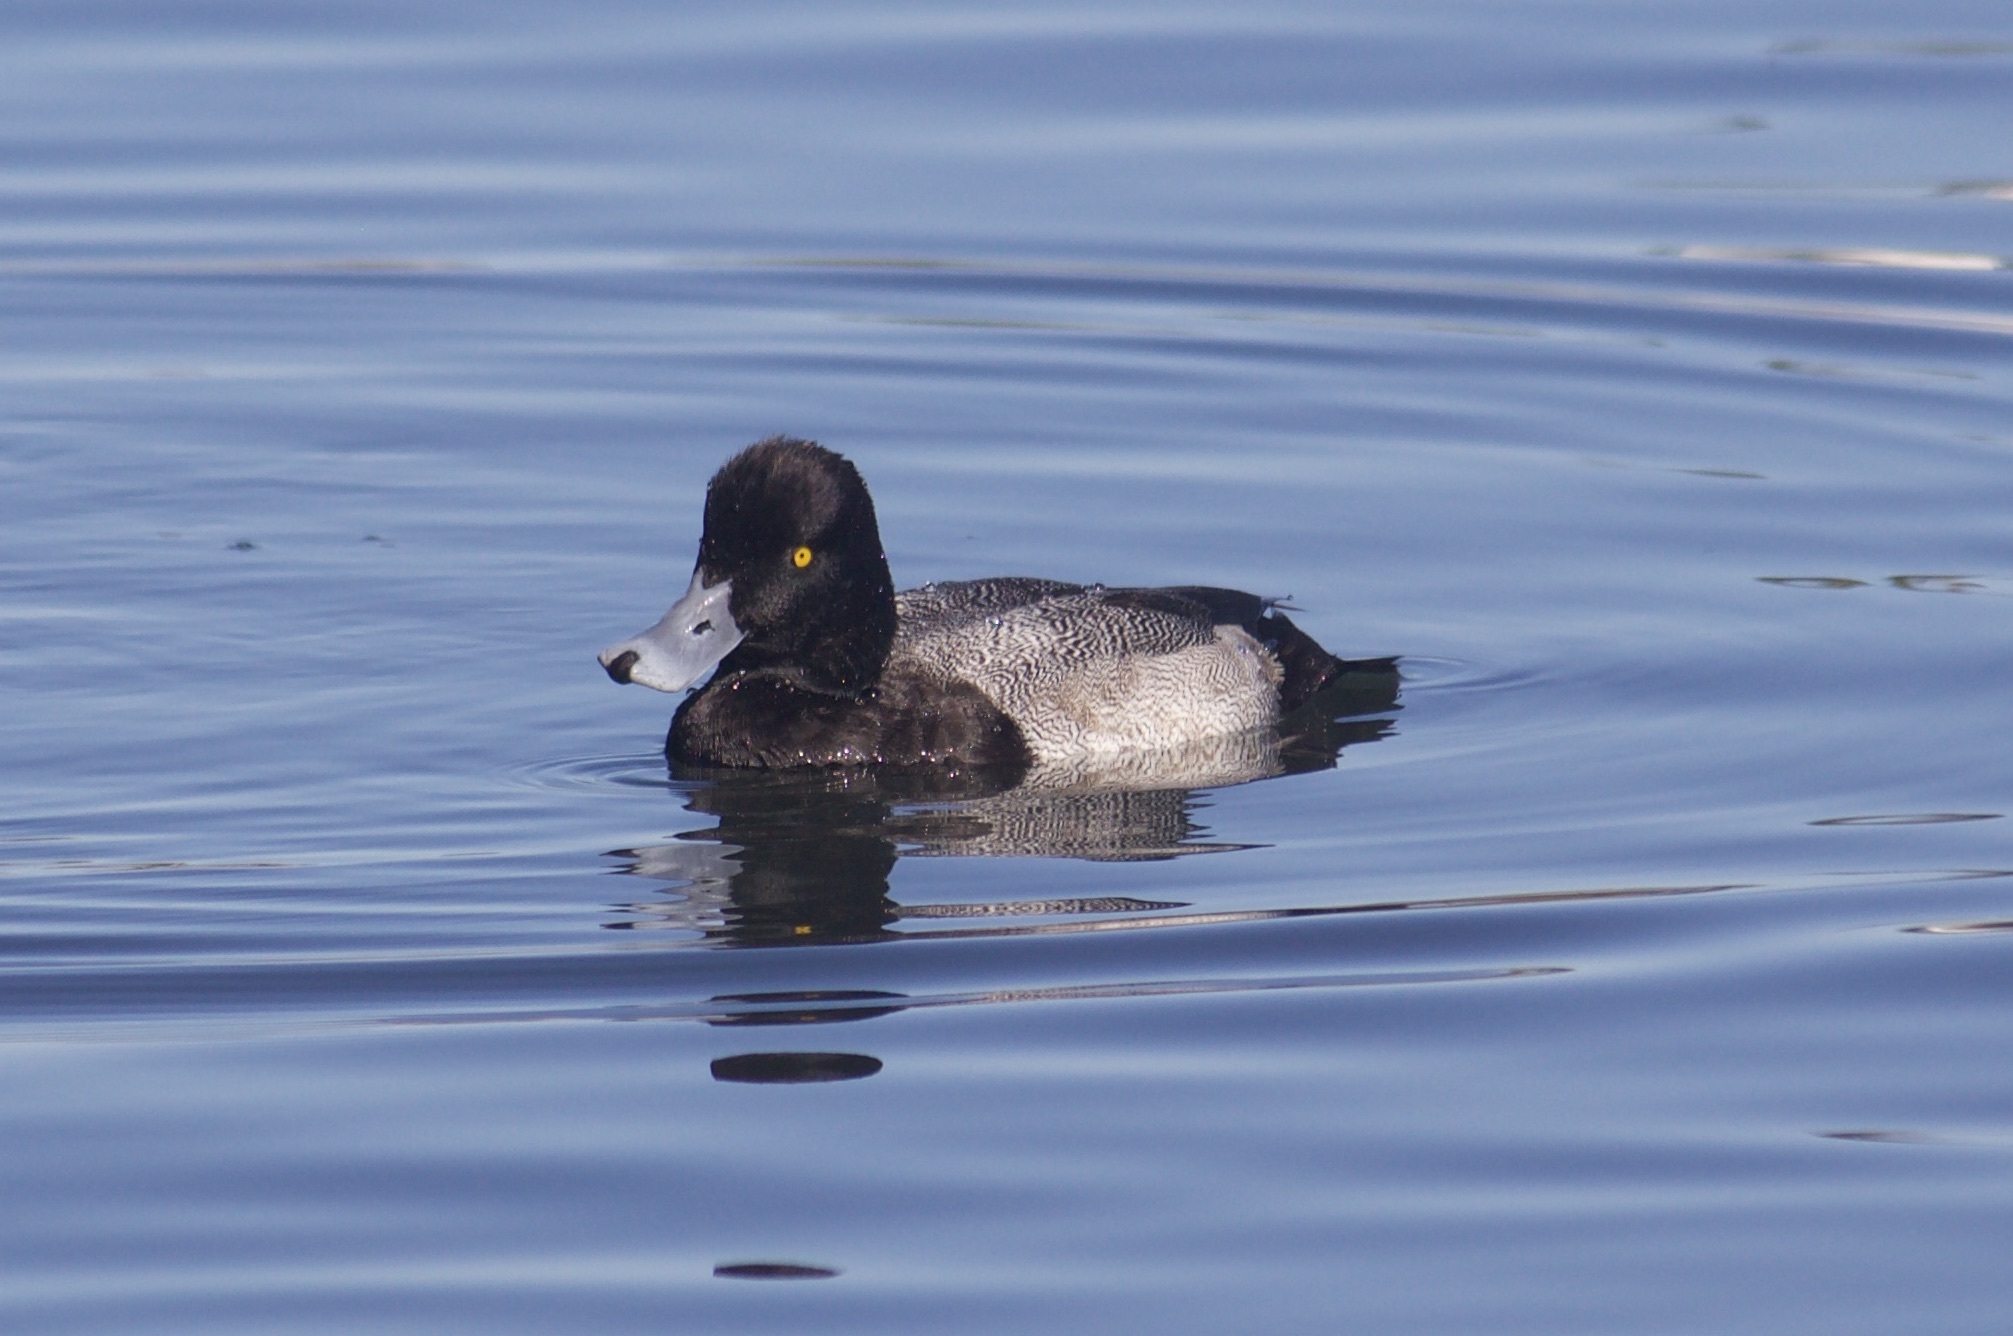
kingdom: Animalia
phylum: Chordata
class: Aves
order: Anseriformes
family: Anatidae
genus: Aythya
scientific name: Aythya marila
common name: Greater scaup
